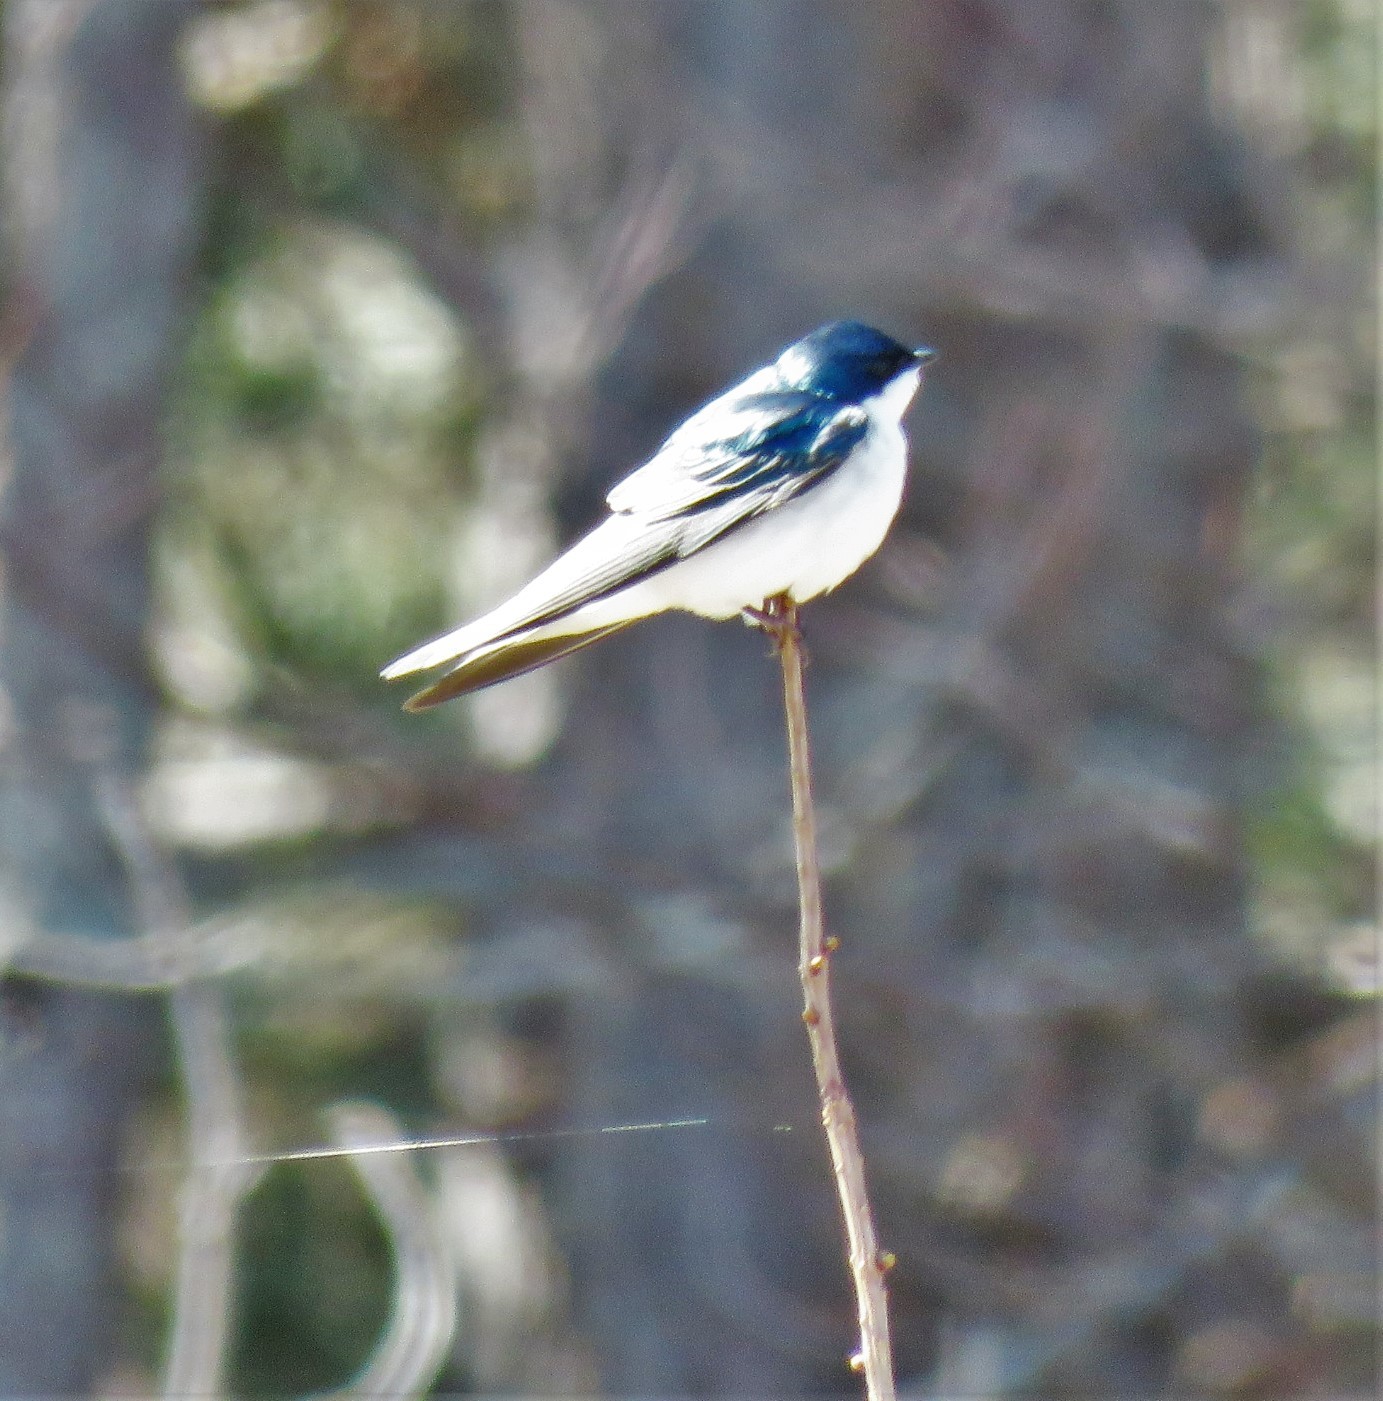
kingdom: Animalia
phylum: Chordata
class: Aves
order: Passeriformes
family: Hirundinidae
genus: Tachycineta
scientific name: Tachycineta bicolor
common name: Tree swallow
